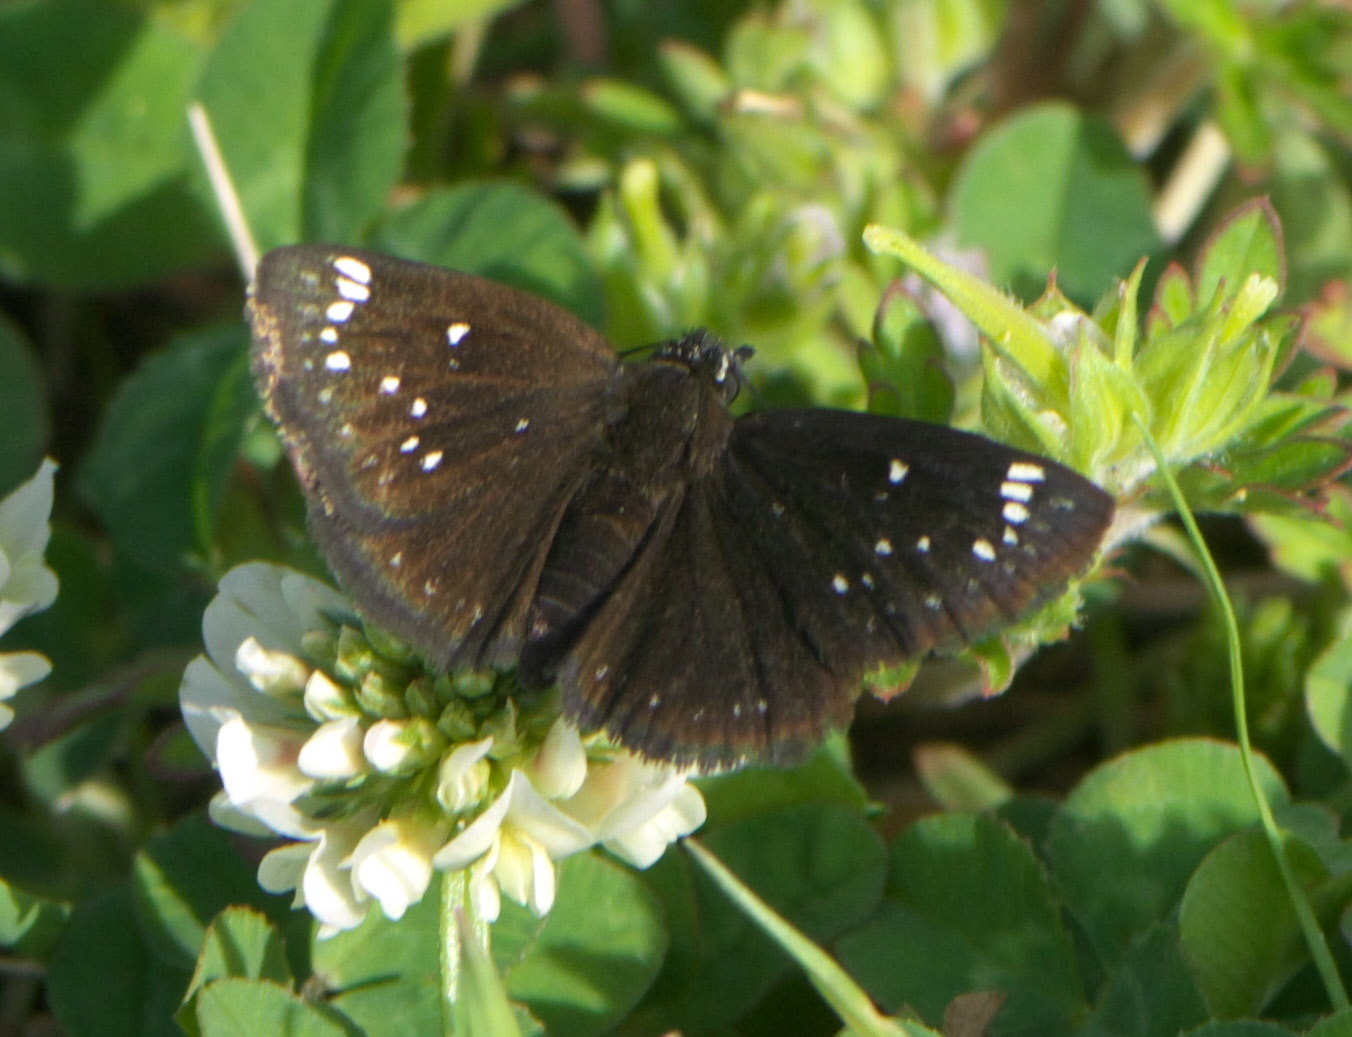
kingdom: Animalia
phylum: Arthropoda
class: Insecta
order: Lepidoptera
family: Hesperiidae
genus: Pholisora
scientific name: Pholisora catullus
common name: Common sootywing
